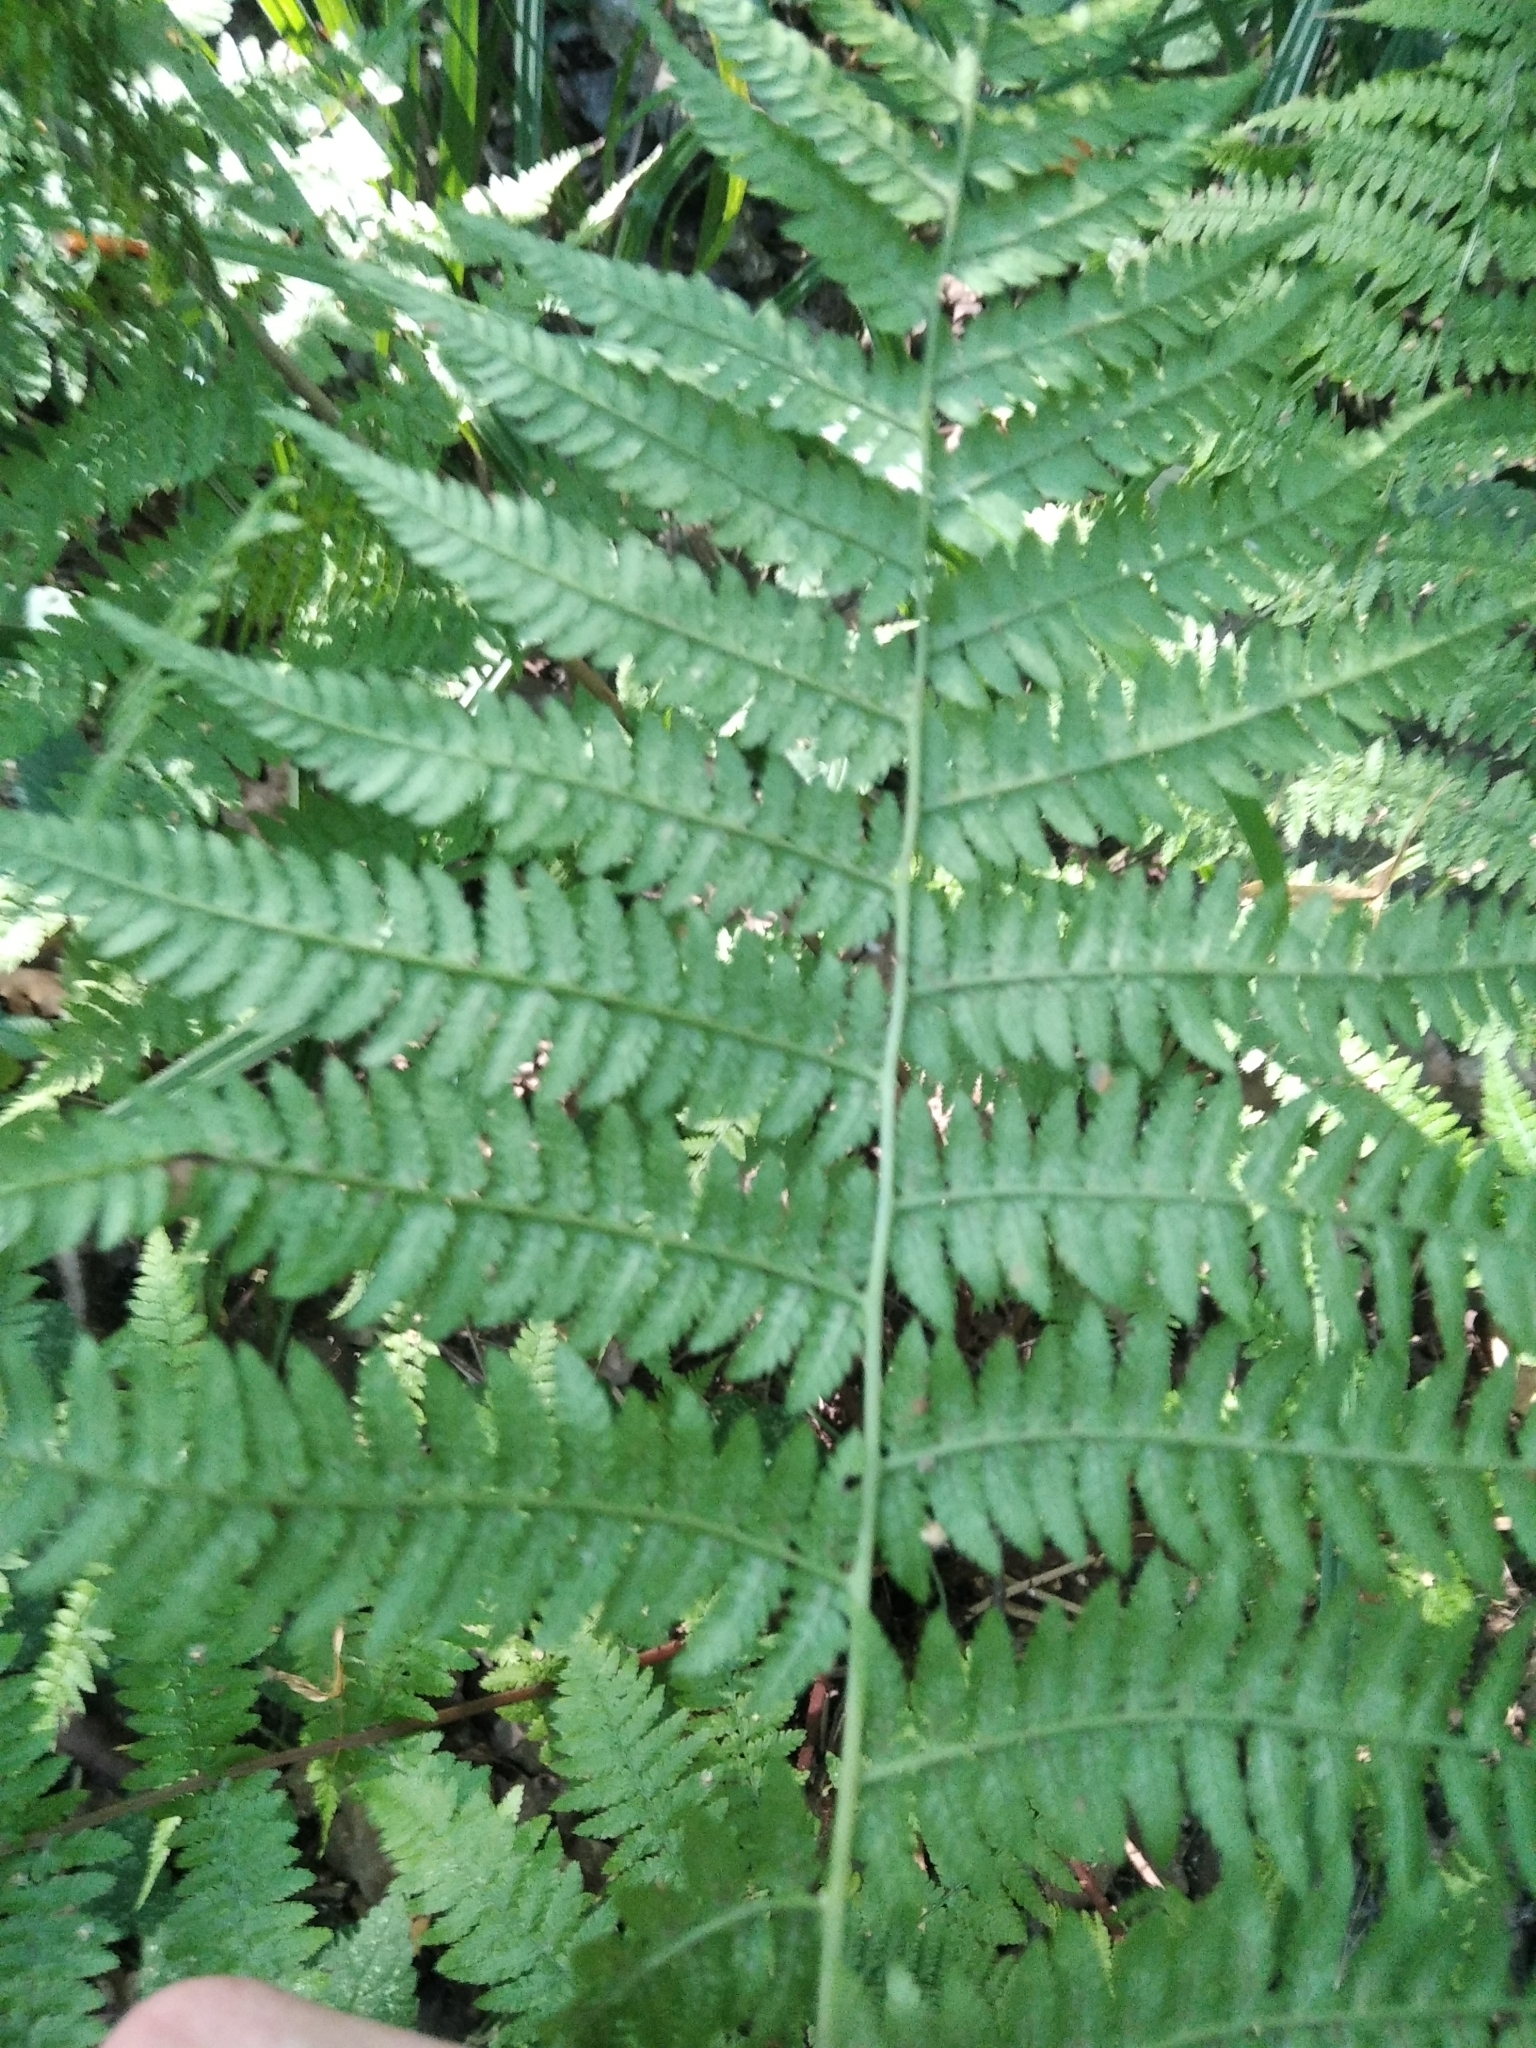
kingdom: Plantae
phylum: Tracheophyta
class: Polypodiopsida
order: Polypodiales
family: Athyriaceae
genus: Athyrium
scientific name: Athyrium filix-femina
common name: Lady fern
